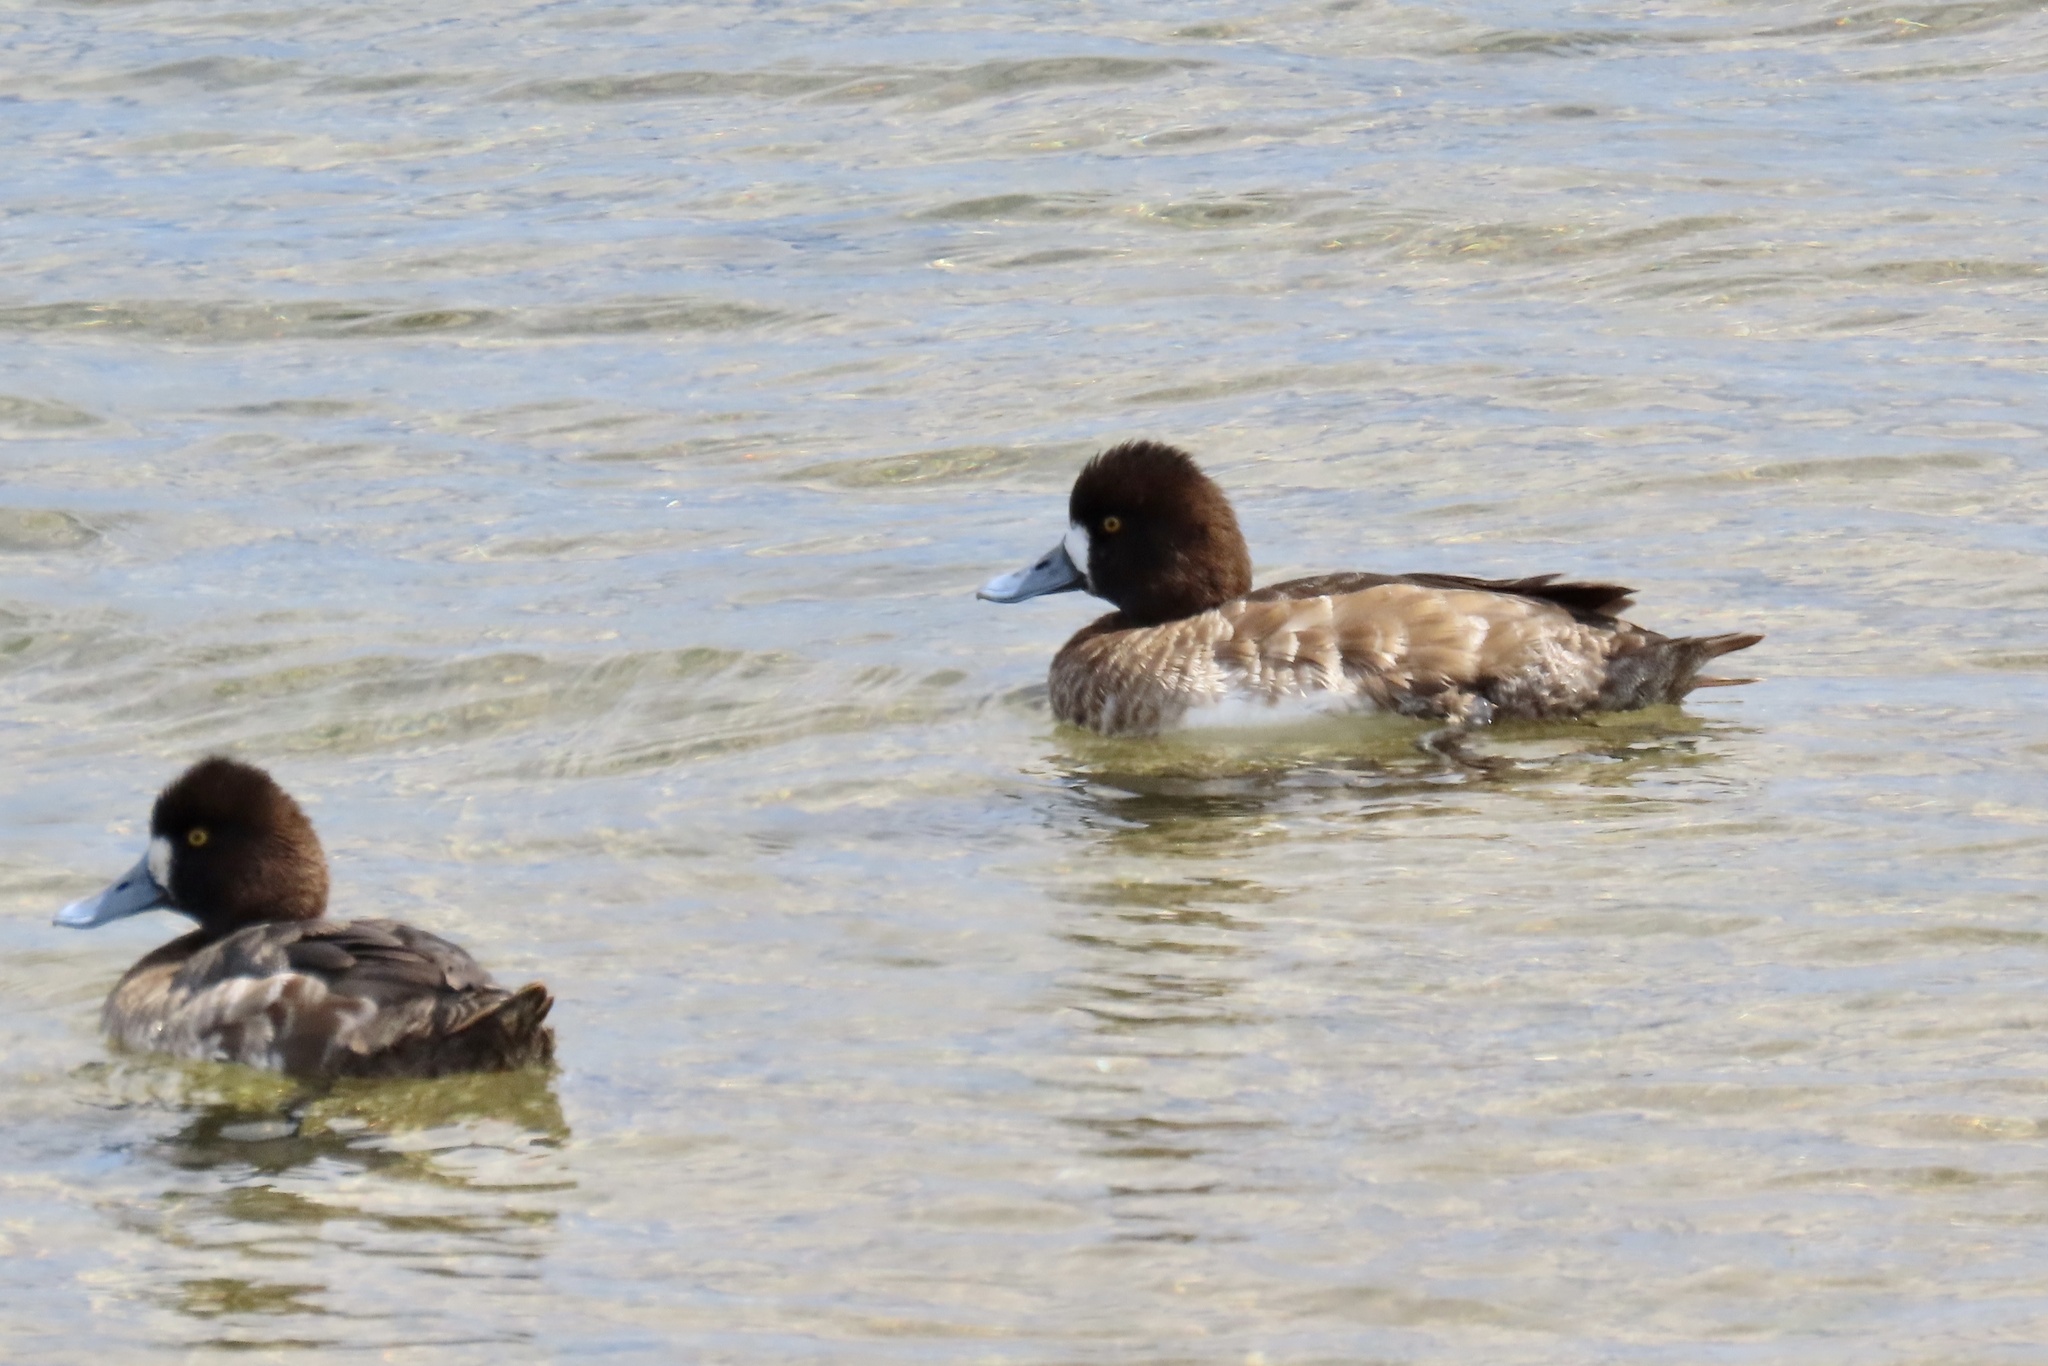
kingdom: Animalia
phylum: Chordata
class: Aves
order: Anseriformes
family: Anatidae
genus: Aythya
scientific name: Aythya affinis
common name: Lesser scaup
